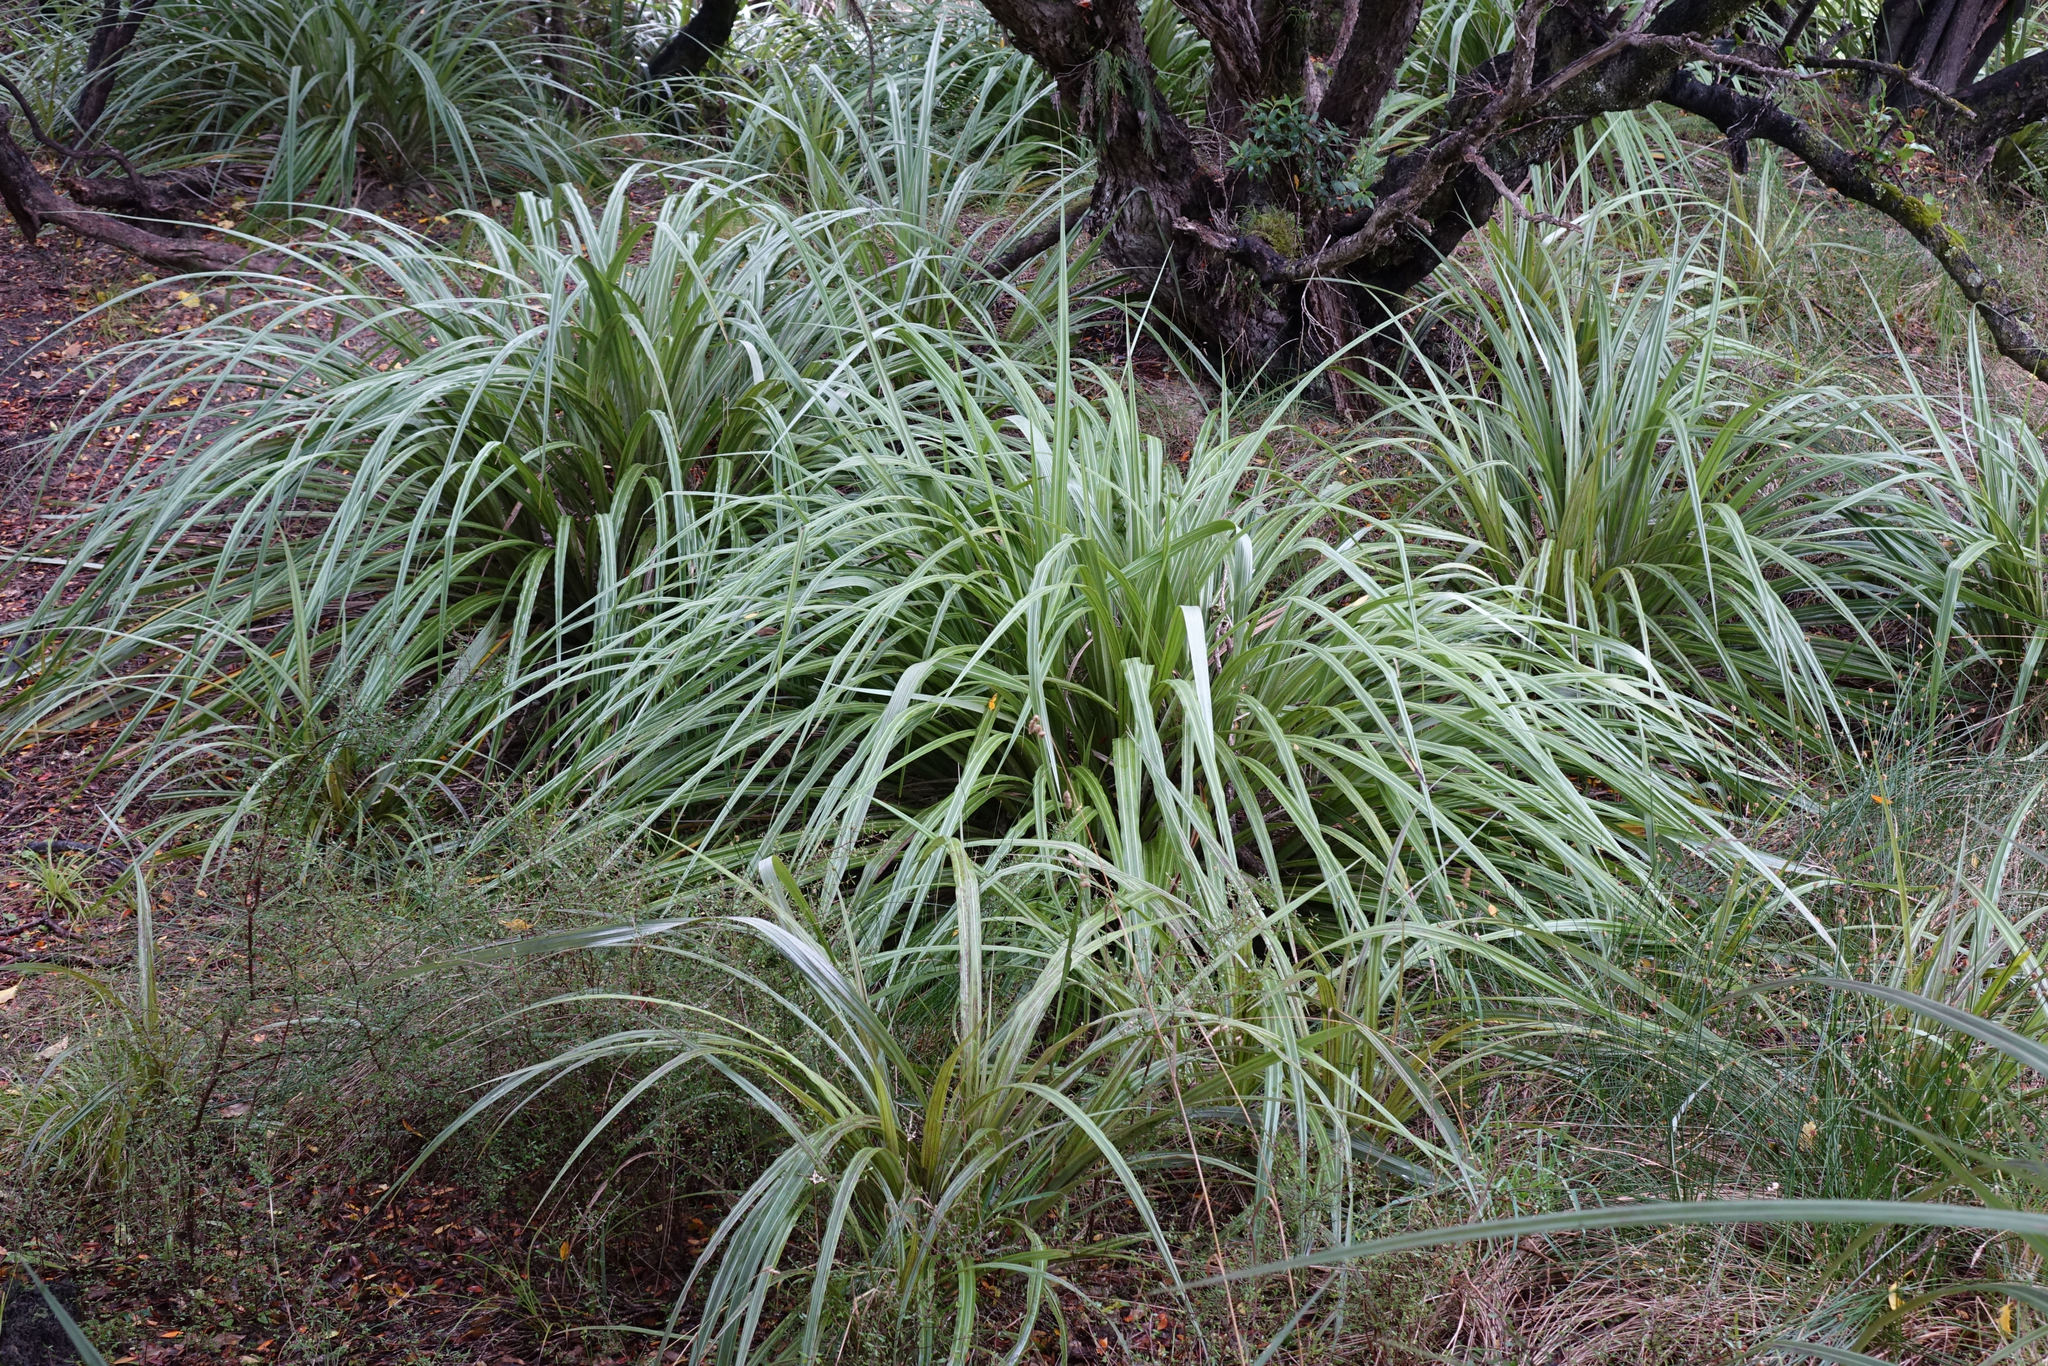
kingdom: Plantae
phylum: Tracheophyta
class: Liliopsida
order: Asparagales
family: Asteliaceae
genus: Astelia
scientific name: Astelia fragrans
